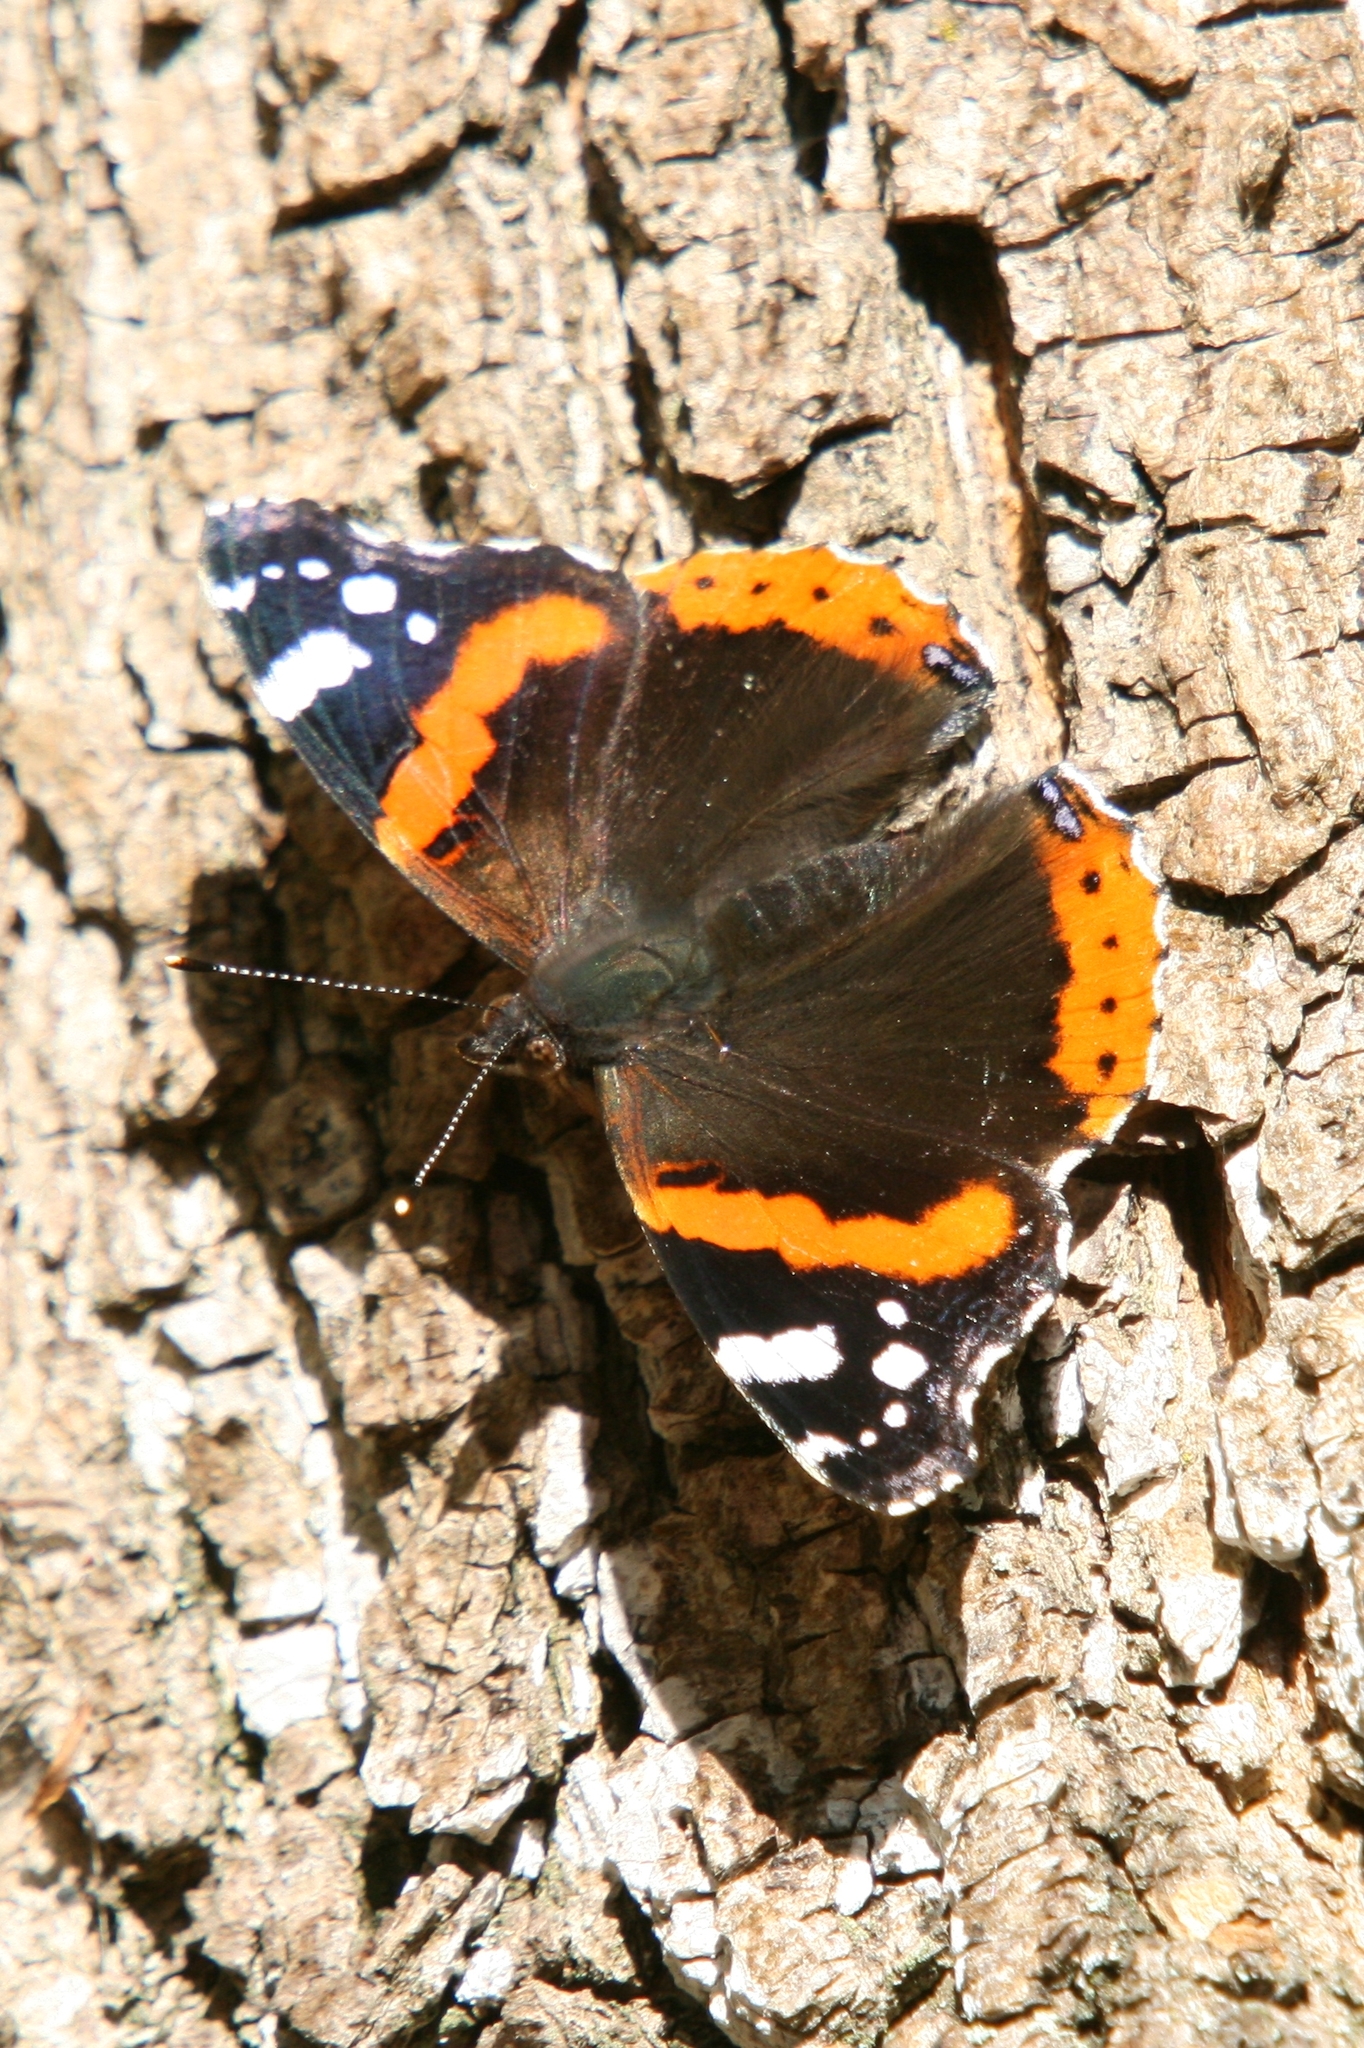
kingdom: Animalia
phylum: Arthropoda
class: Insecta
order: Lepidoptera
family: Nymphalidae
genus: Vanessa
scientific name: Vanessa atalanta
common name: Red admiral
